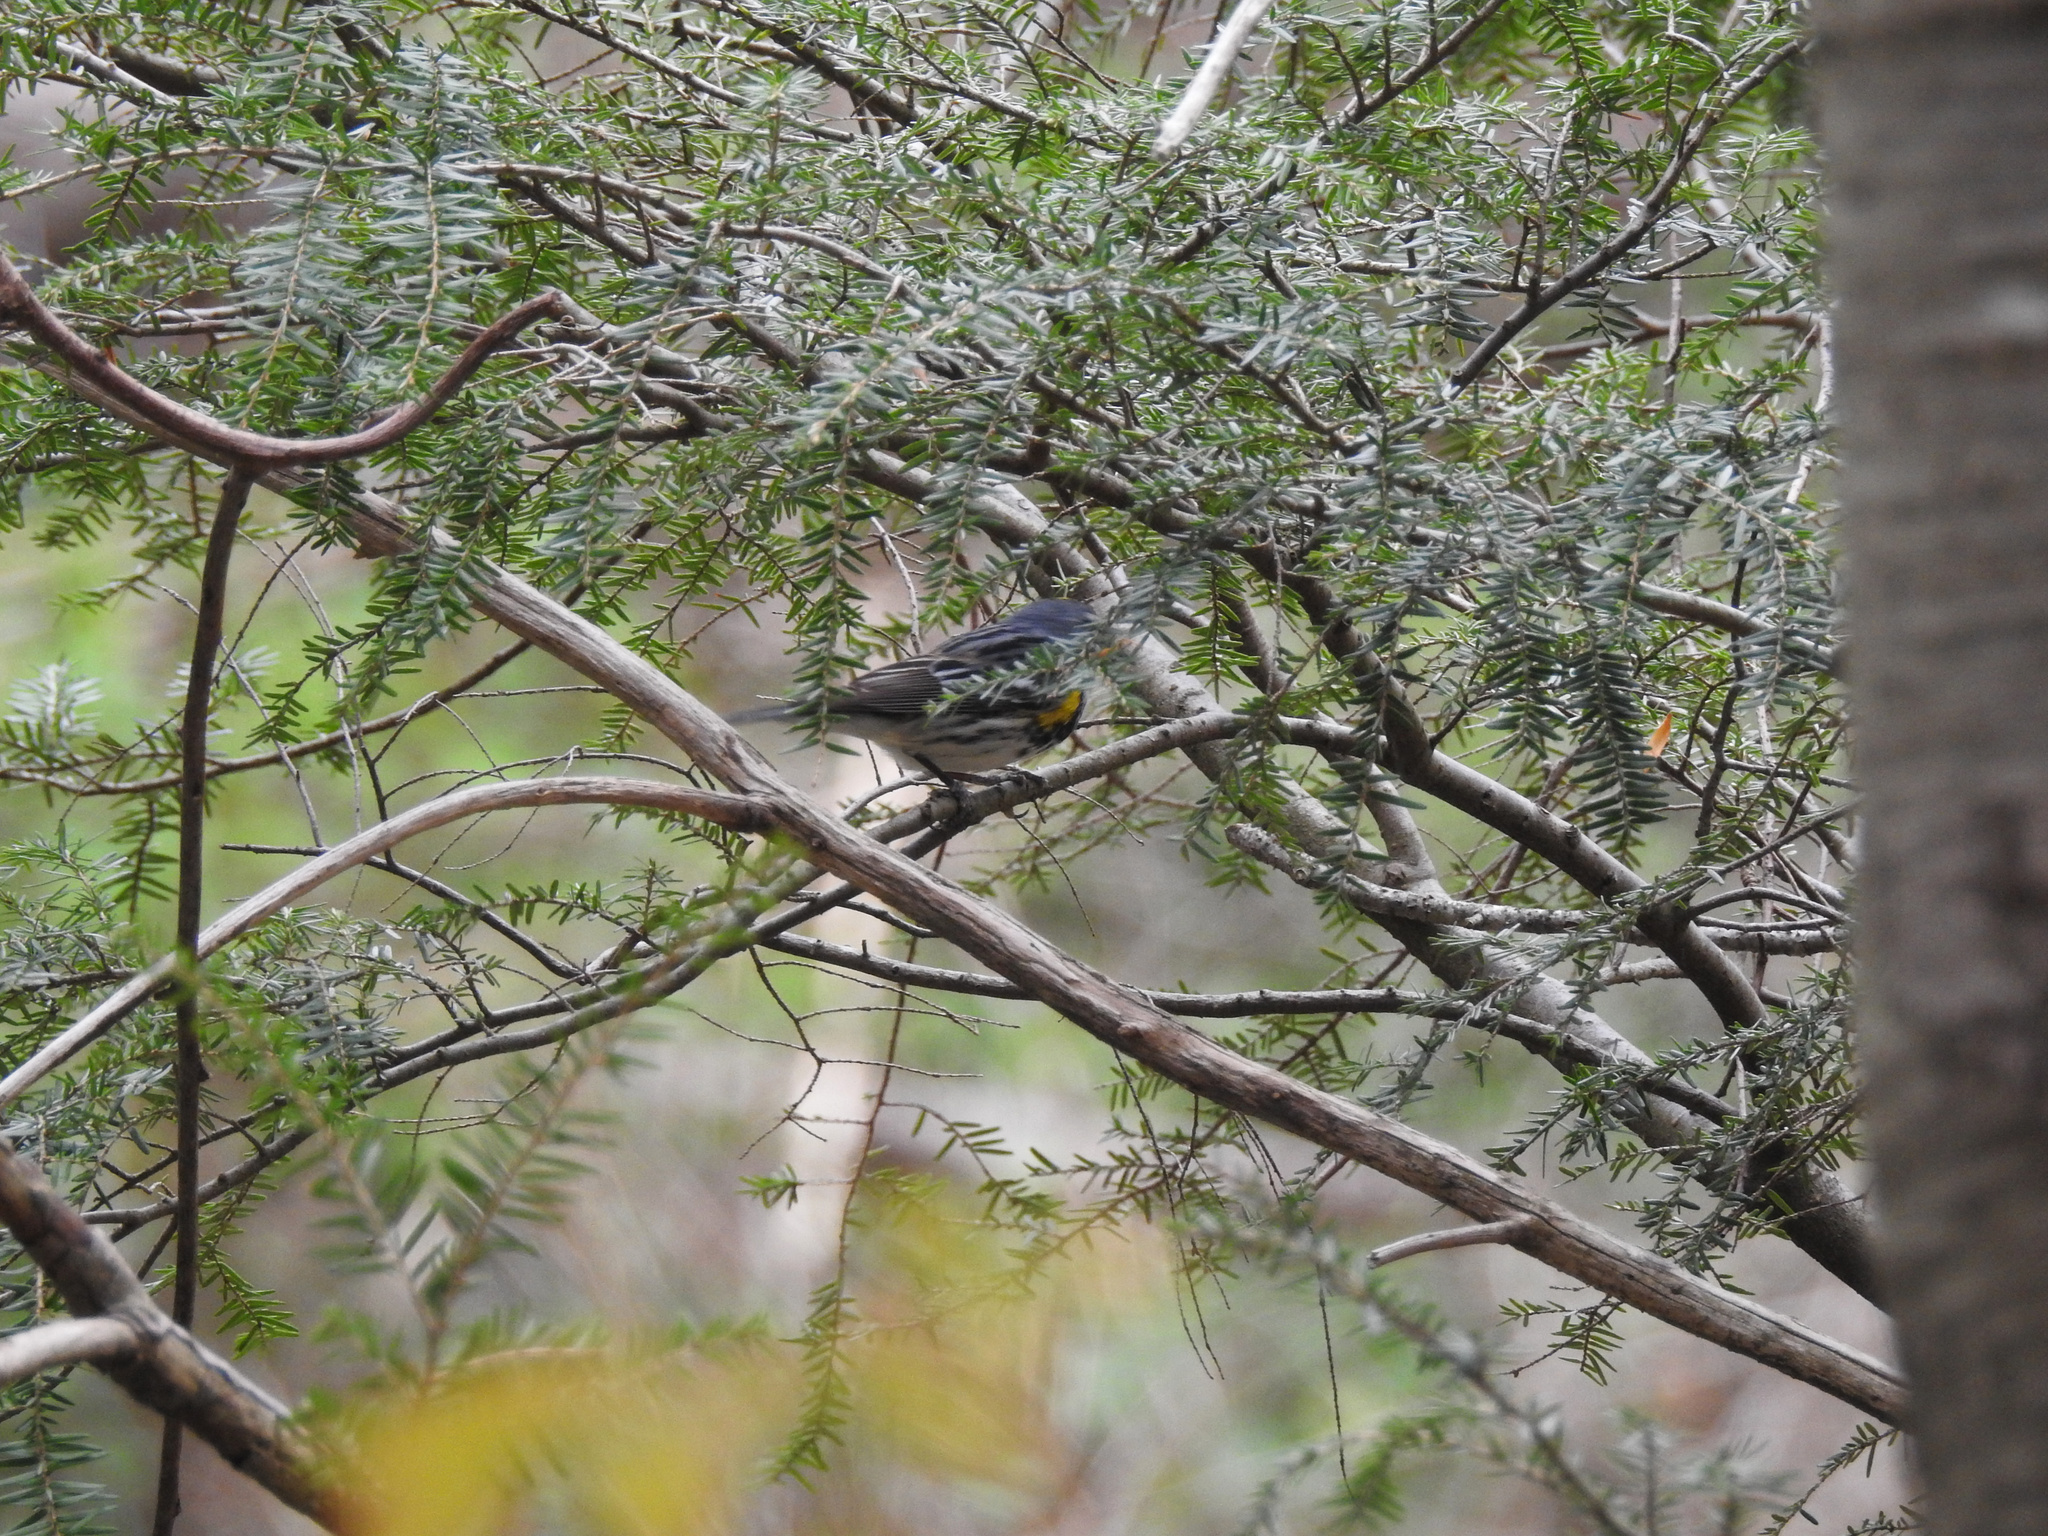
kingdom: Animalia
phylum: Chordata
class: Aves
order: Passeriformes
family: Parulidae
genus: Setophaga
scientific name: Setophaga coronata
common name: Myrtle warbler
